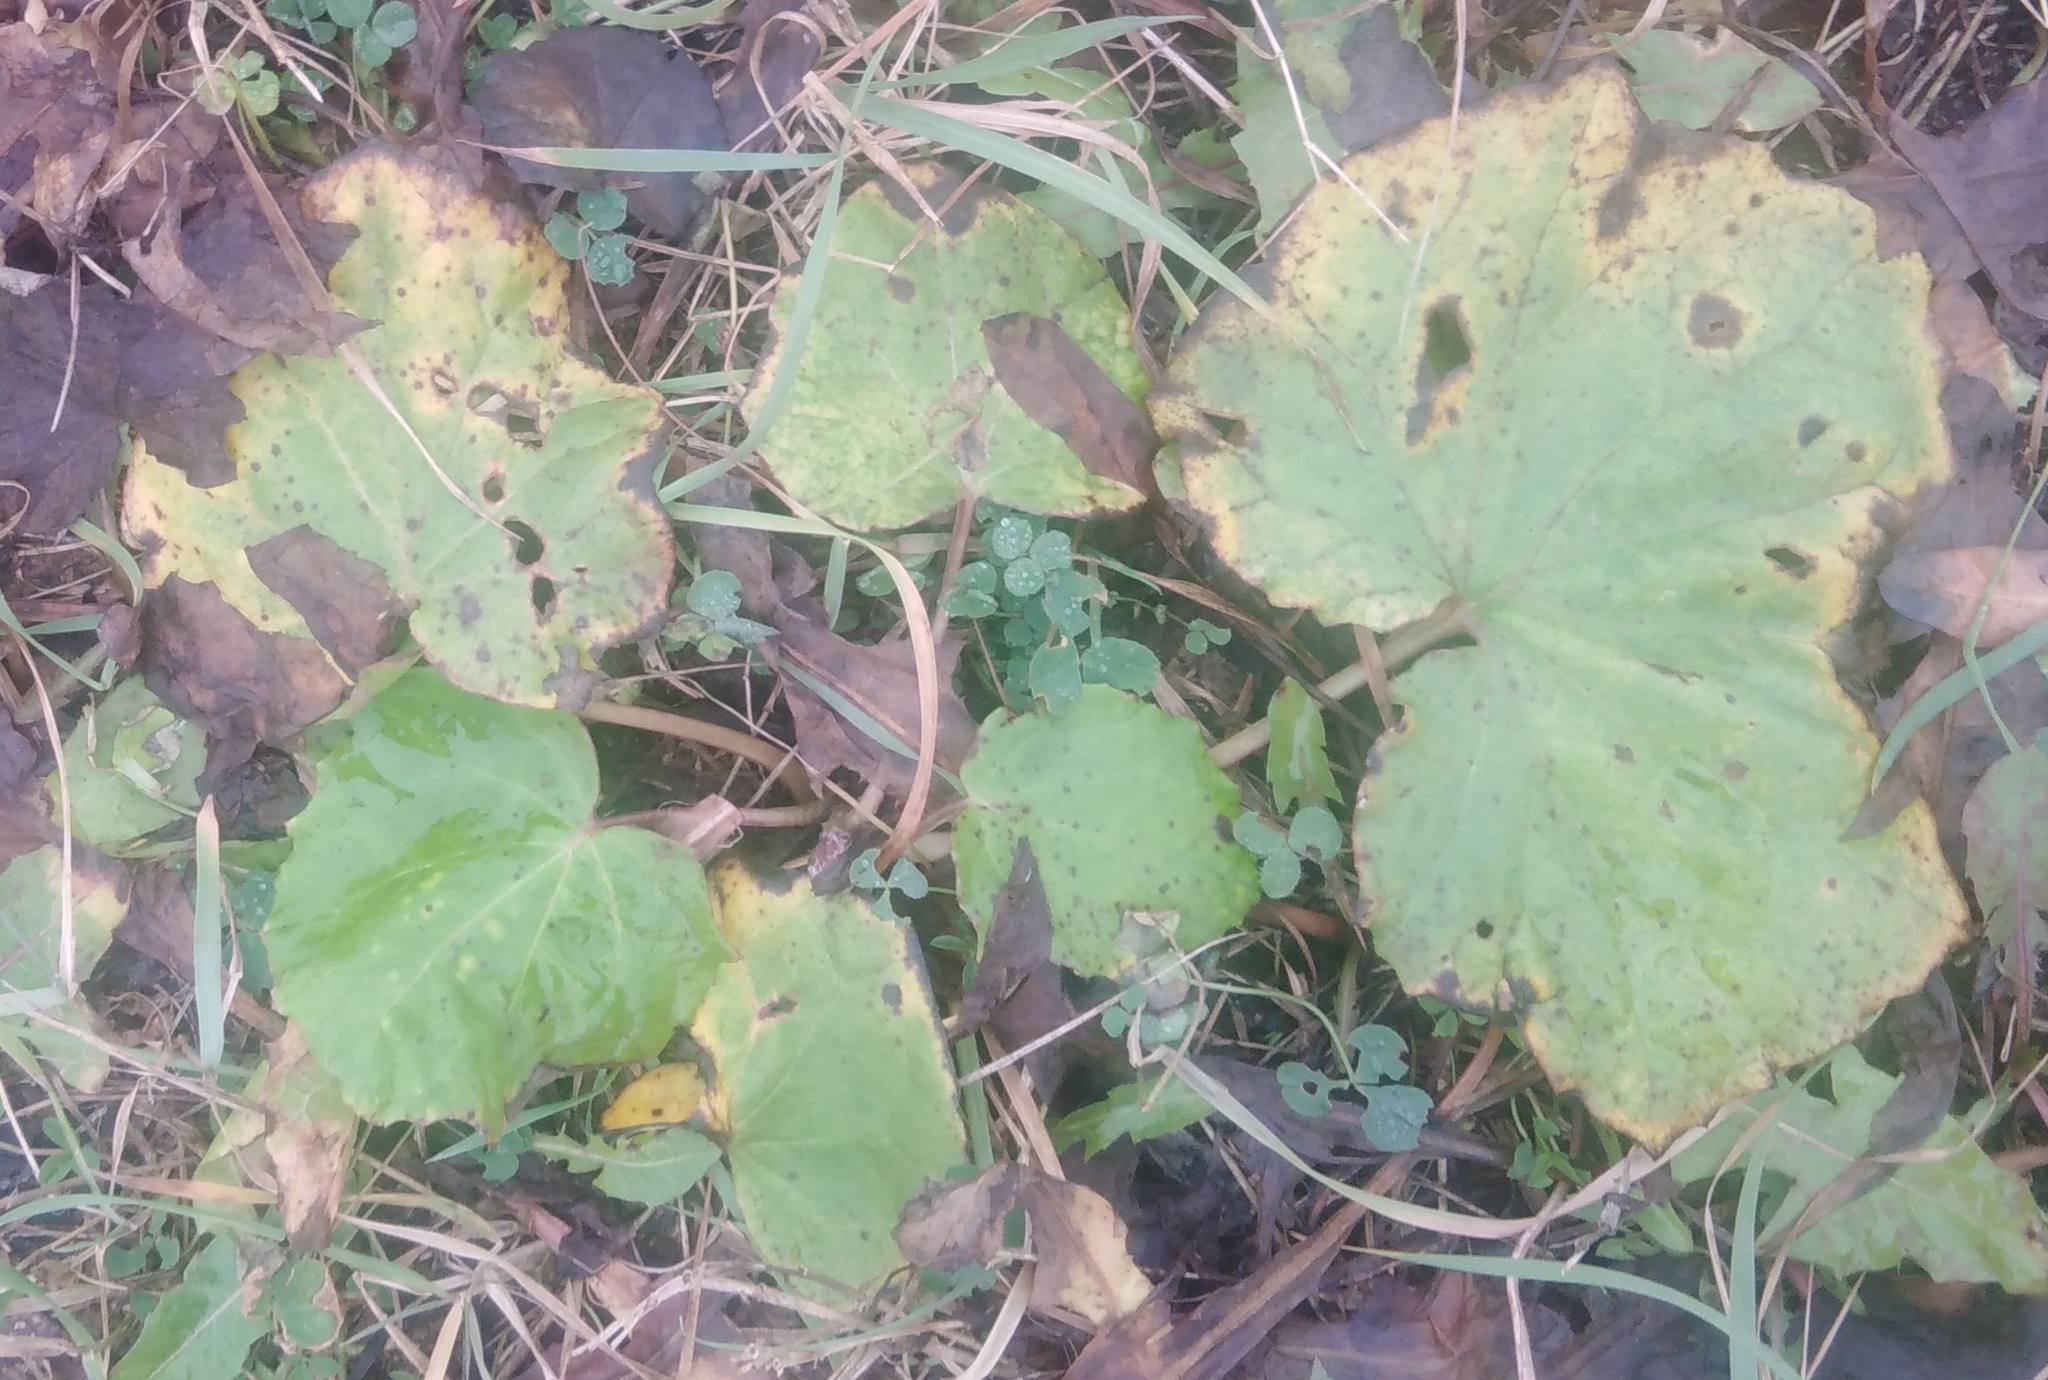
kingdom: Plantae
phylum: Tracheophyta
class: Magnoliopsida
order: Asterales
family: Asteraceae
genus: Tussilago
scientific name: Tussilago farfara
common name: Coltsfoot
